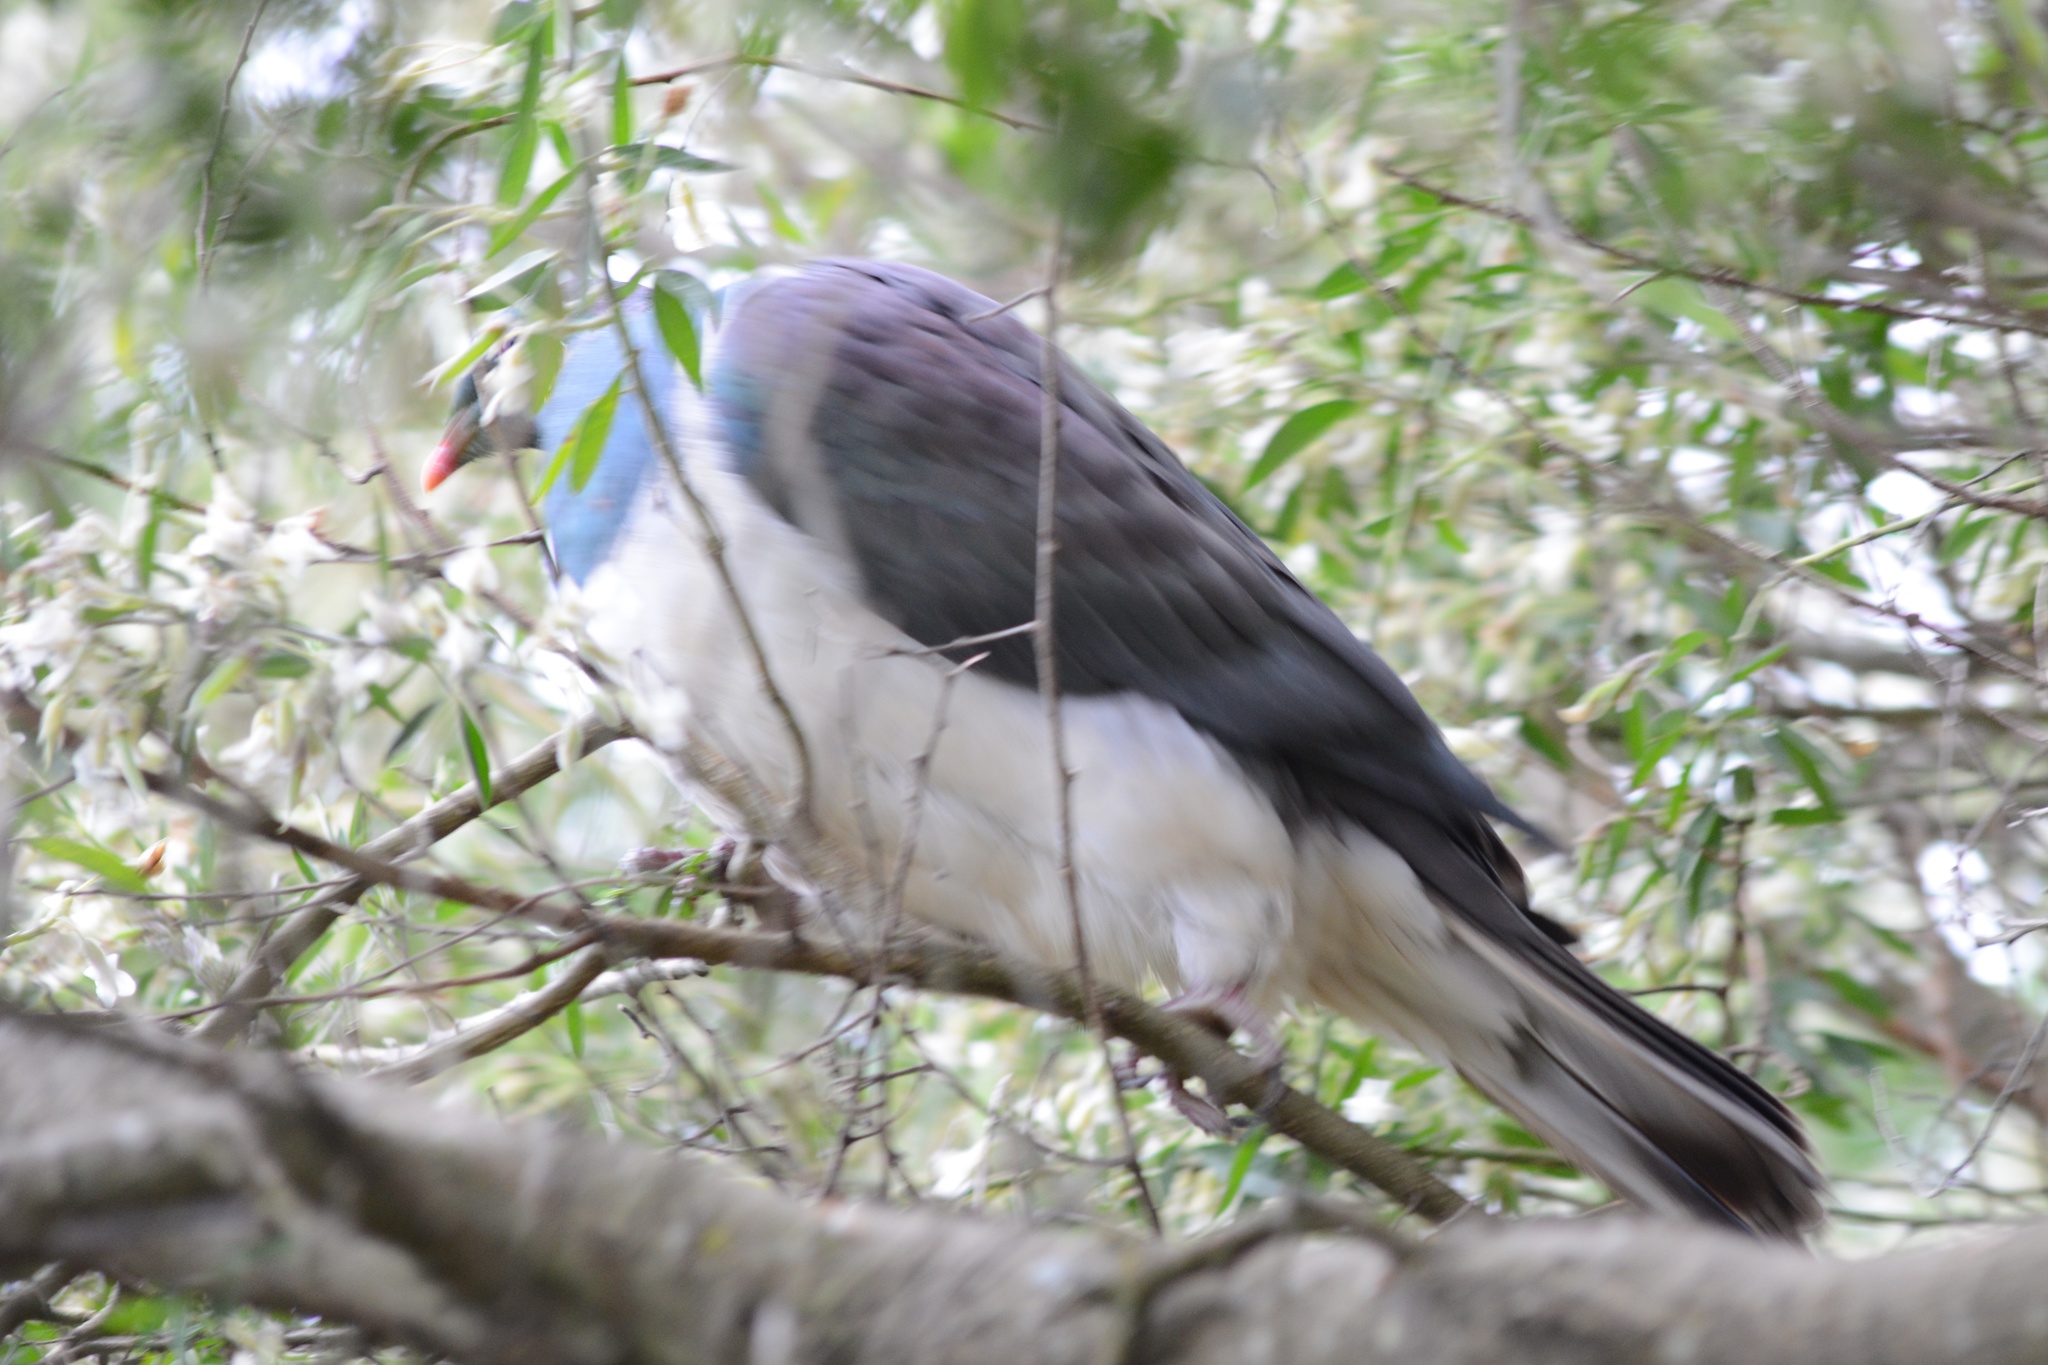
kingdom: Animalia
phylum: Chordata
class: Aves
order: Columbiformes
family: Columbidae
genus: Hemiphaga
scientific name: Hemiphaga novaeseelandiae
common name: New zealand pigeon
